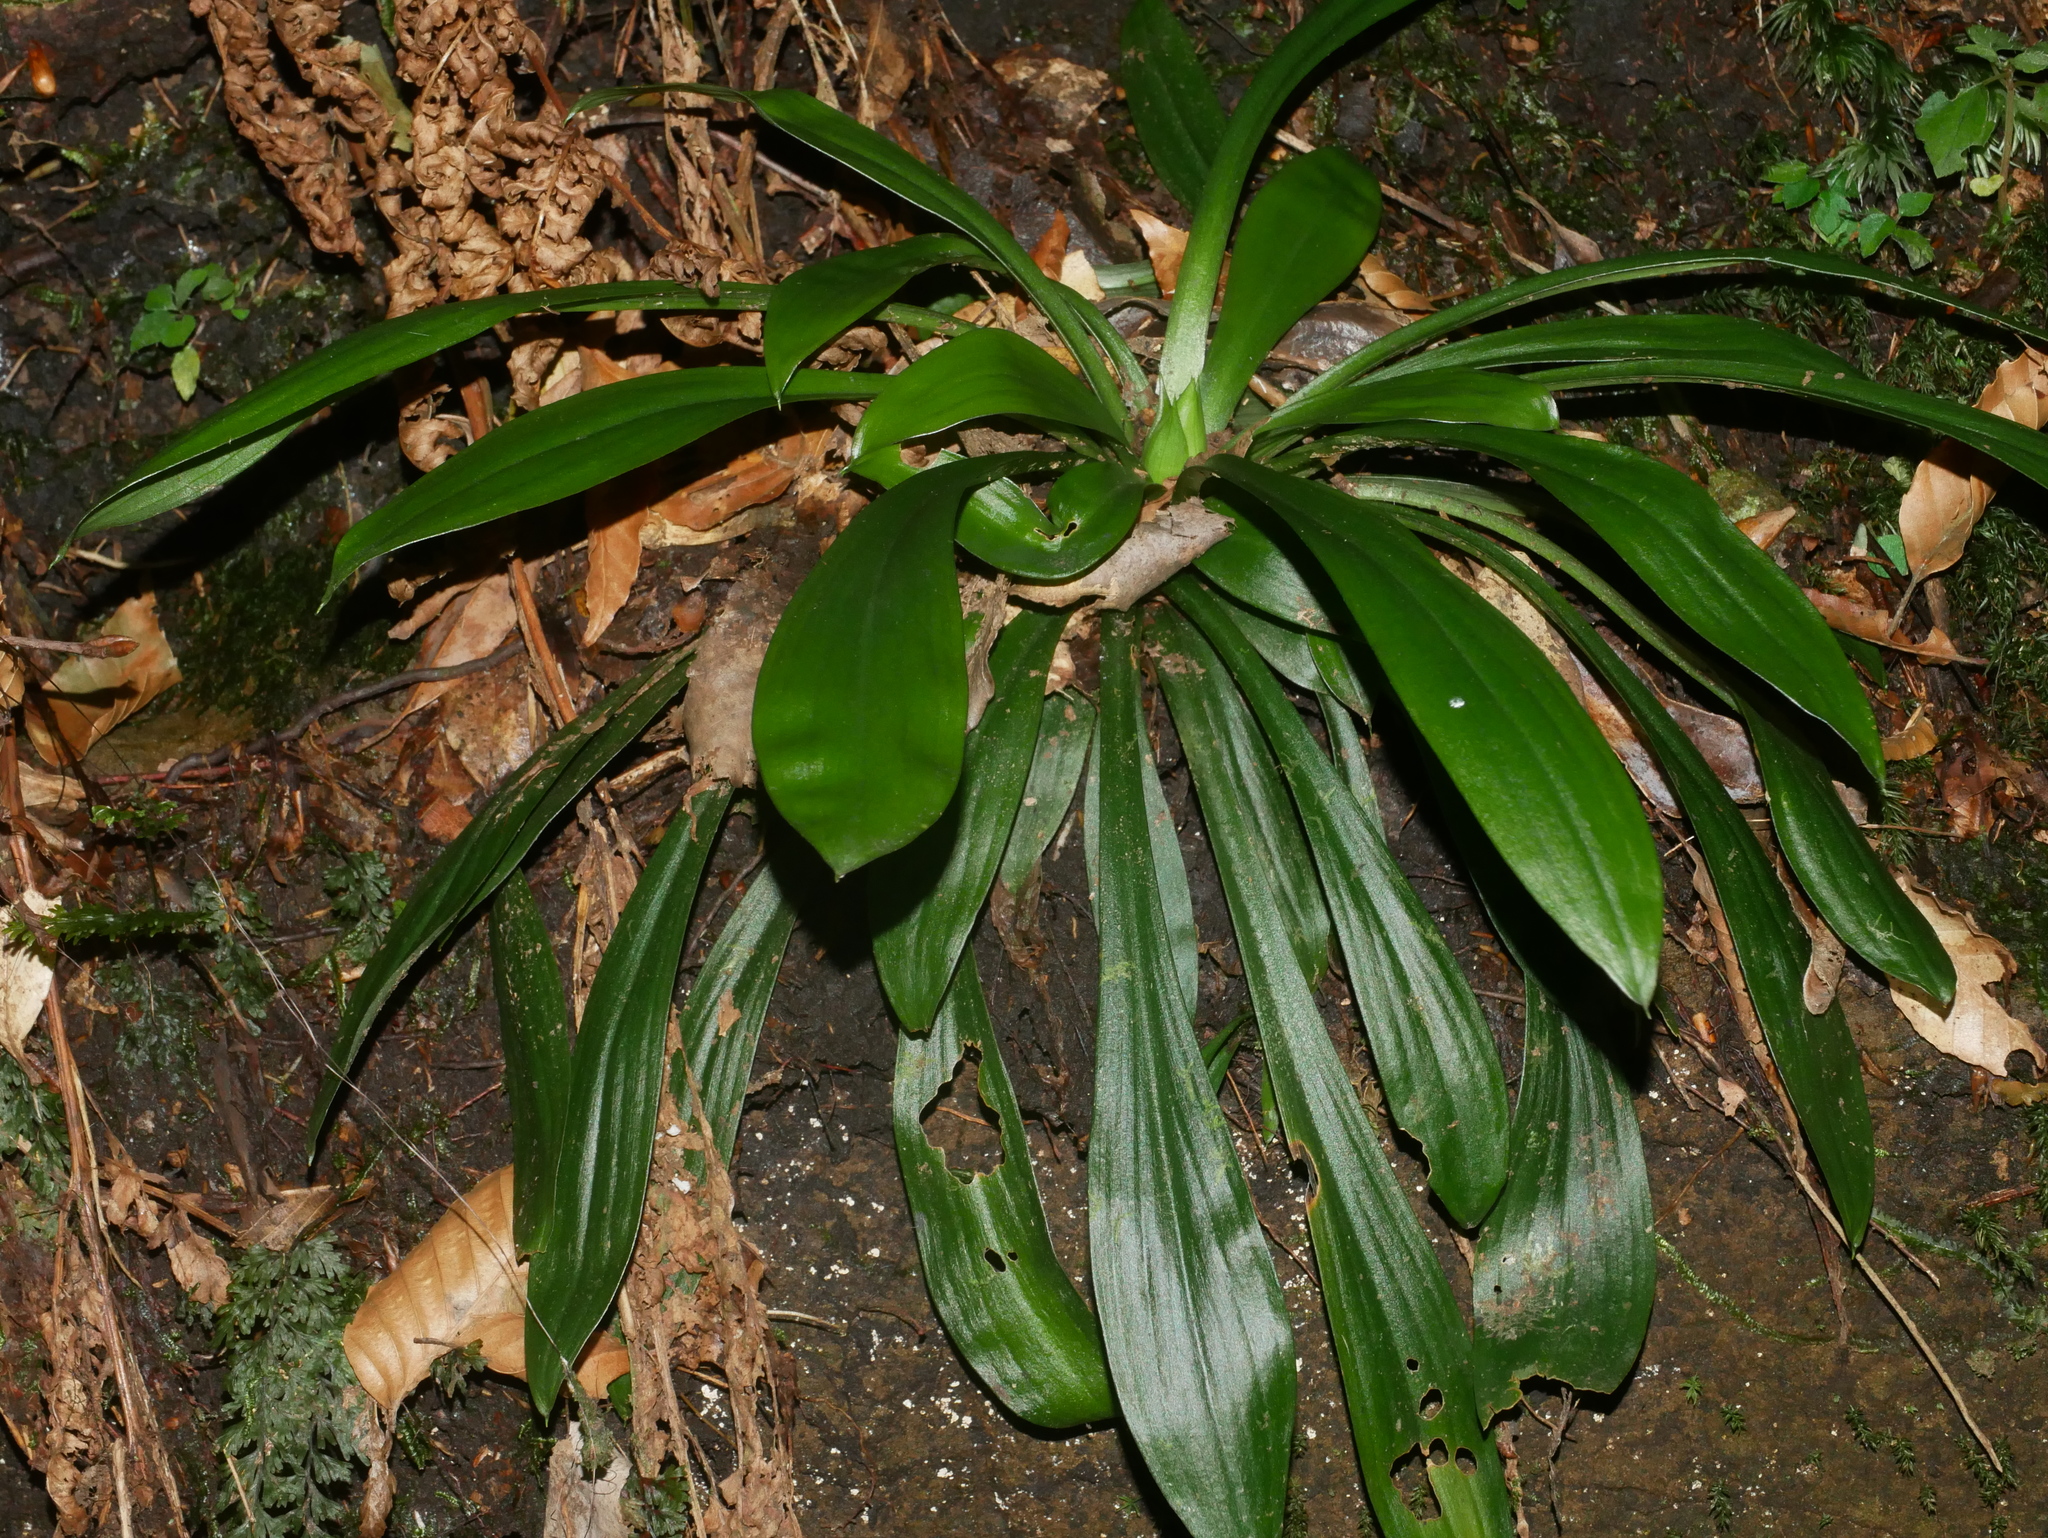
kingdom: Plantae
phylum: Tracheophyta
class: Liliopsida
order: Liliales
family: Melanthiaceae
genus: Helonias
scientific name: Helonias umbellata
